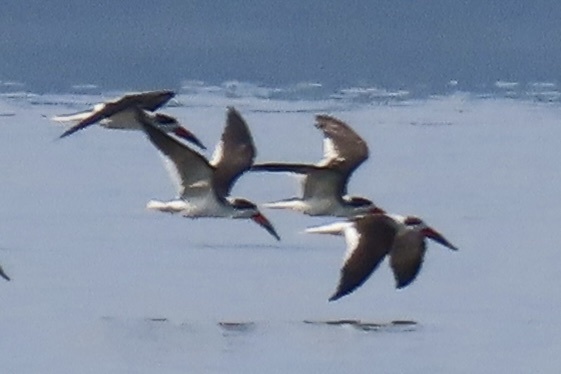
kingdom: Animalia
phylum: Chordata
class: Aves
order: Charadriiformes
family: Laridae
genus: Rynchops
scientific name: Rynchops niger
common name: Black skimmer
